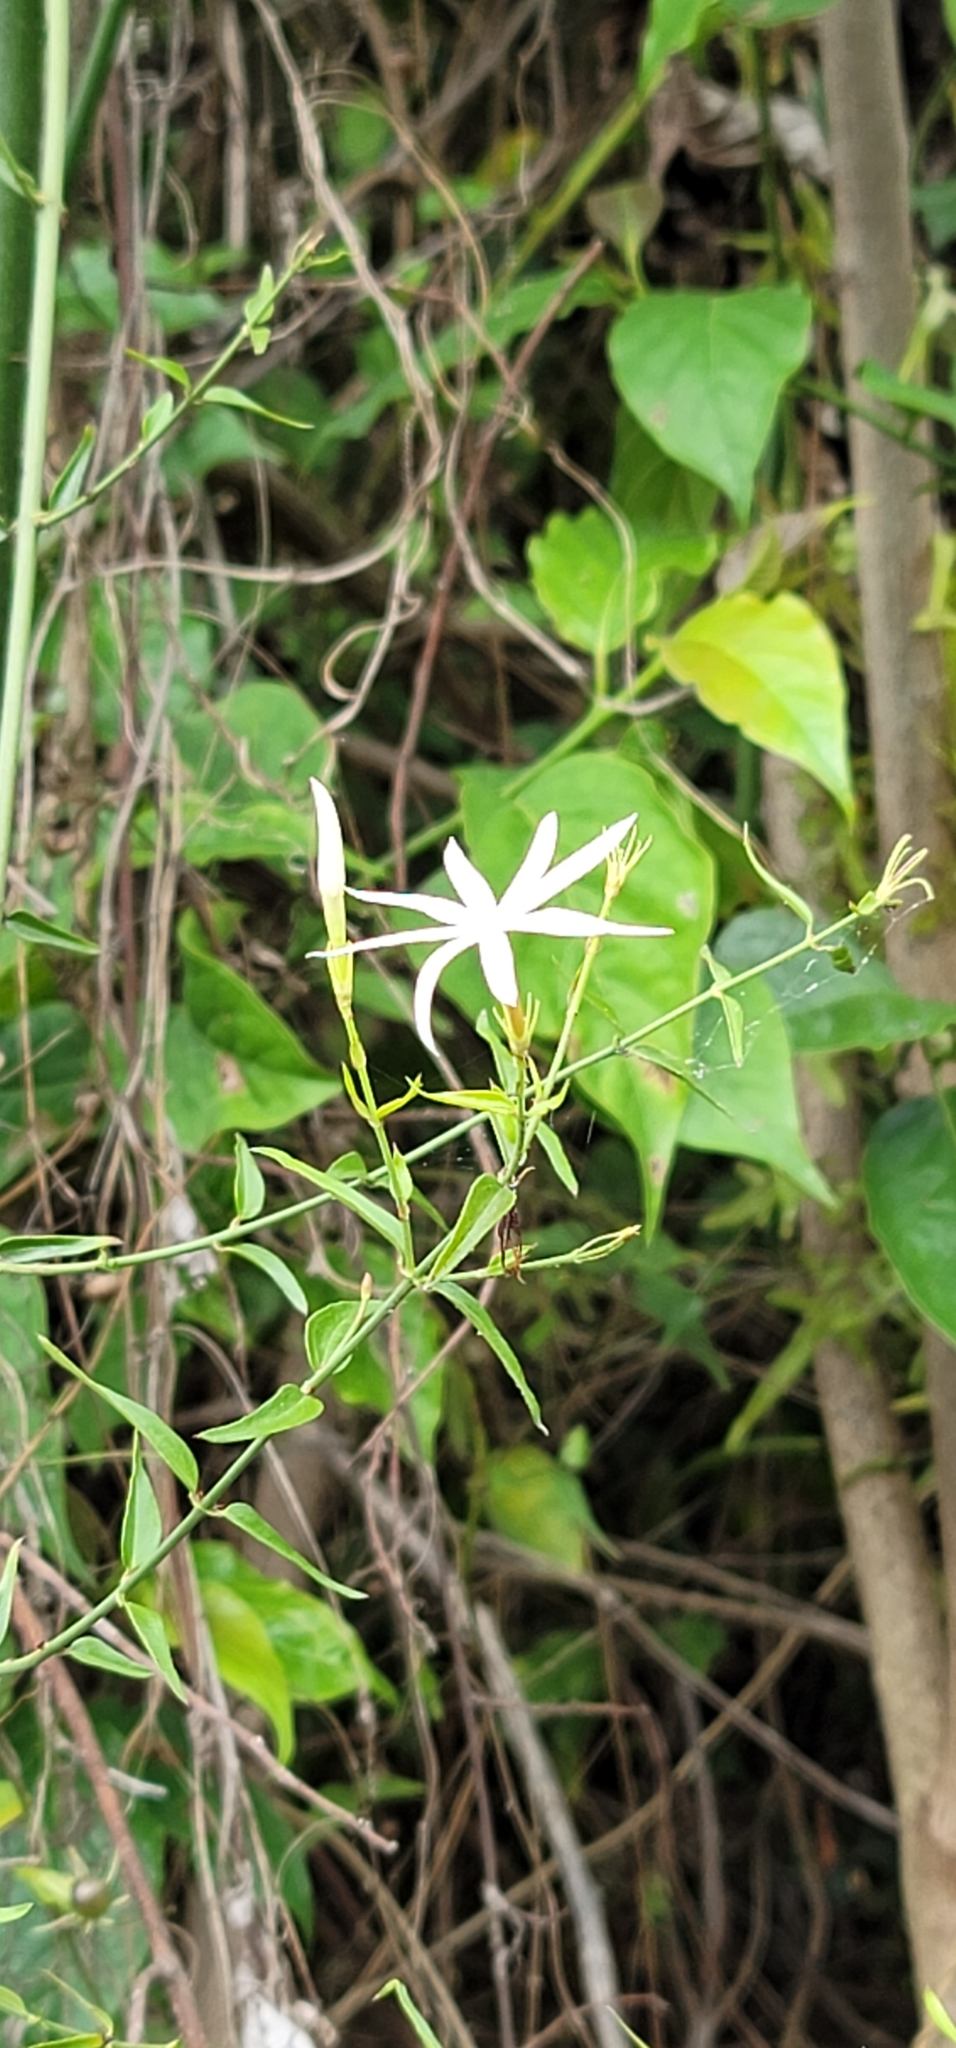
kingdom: Plantae
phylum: Tracheophyta
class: Magnoliopsida
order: Lamiales
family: Oleaceae
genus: Jasminum
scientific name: Jasminum nervosum
